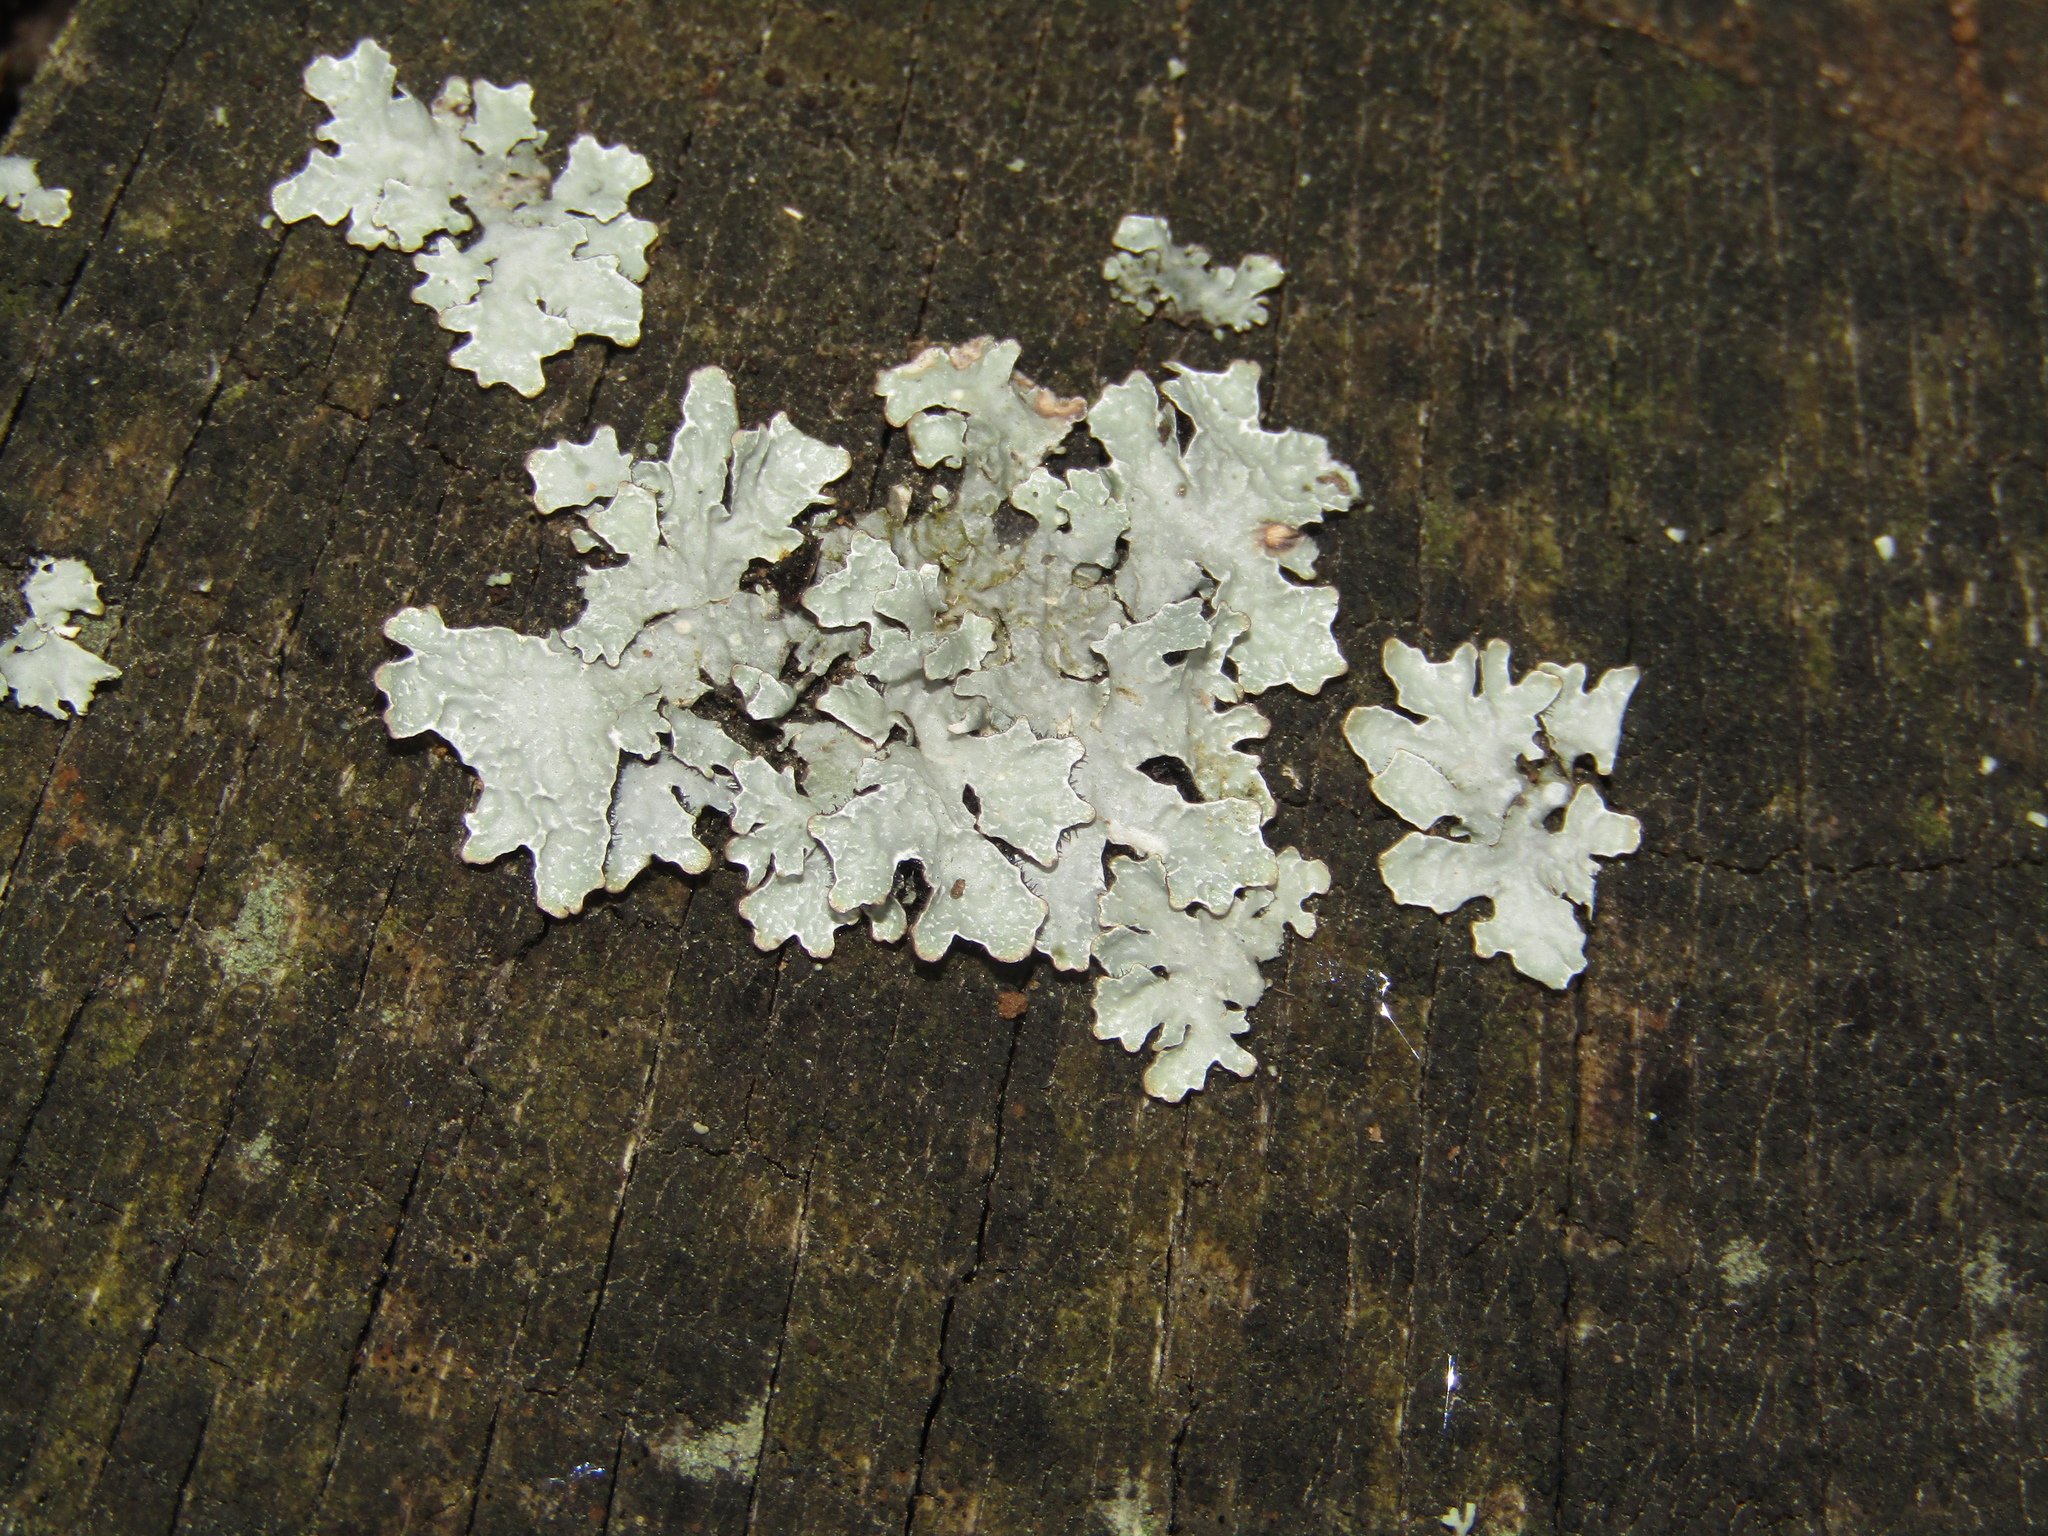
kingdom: Fungi
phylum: Ascomycota
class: Lecanoromycetes
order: Lecanorales
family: Parmeliaceae
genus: Parmelia
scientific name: Parmelia sulcata
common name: Netted shield lichen
